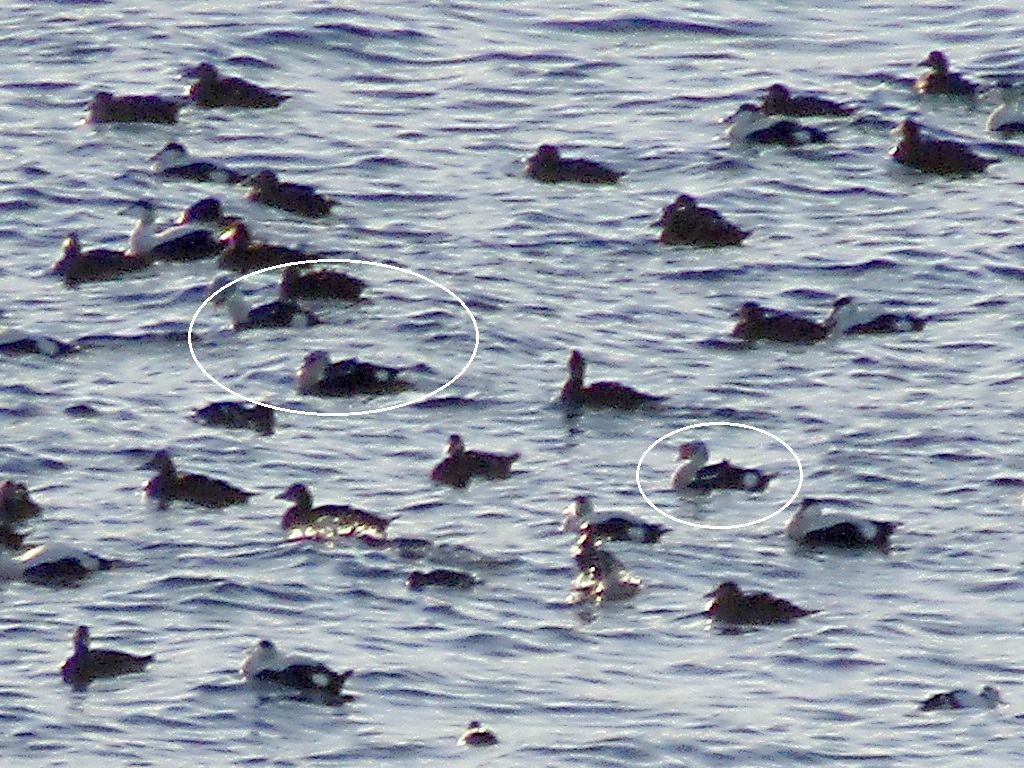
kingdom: Animalia
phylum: Chordata
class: Aves
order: Anseriformes
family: Anatidae
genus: Somateria
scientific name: Somateria spectabilis
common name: King eider
